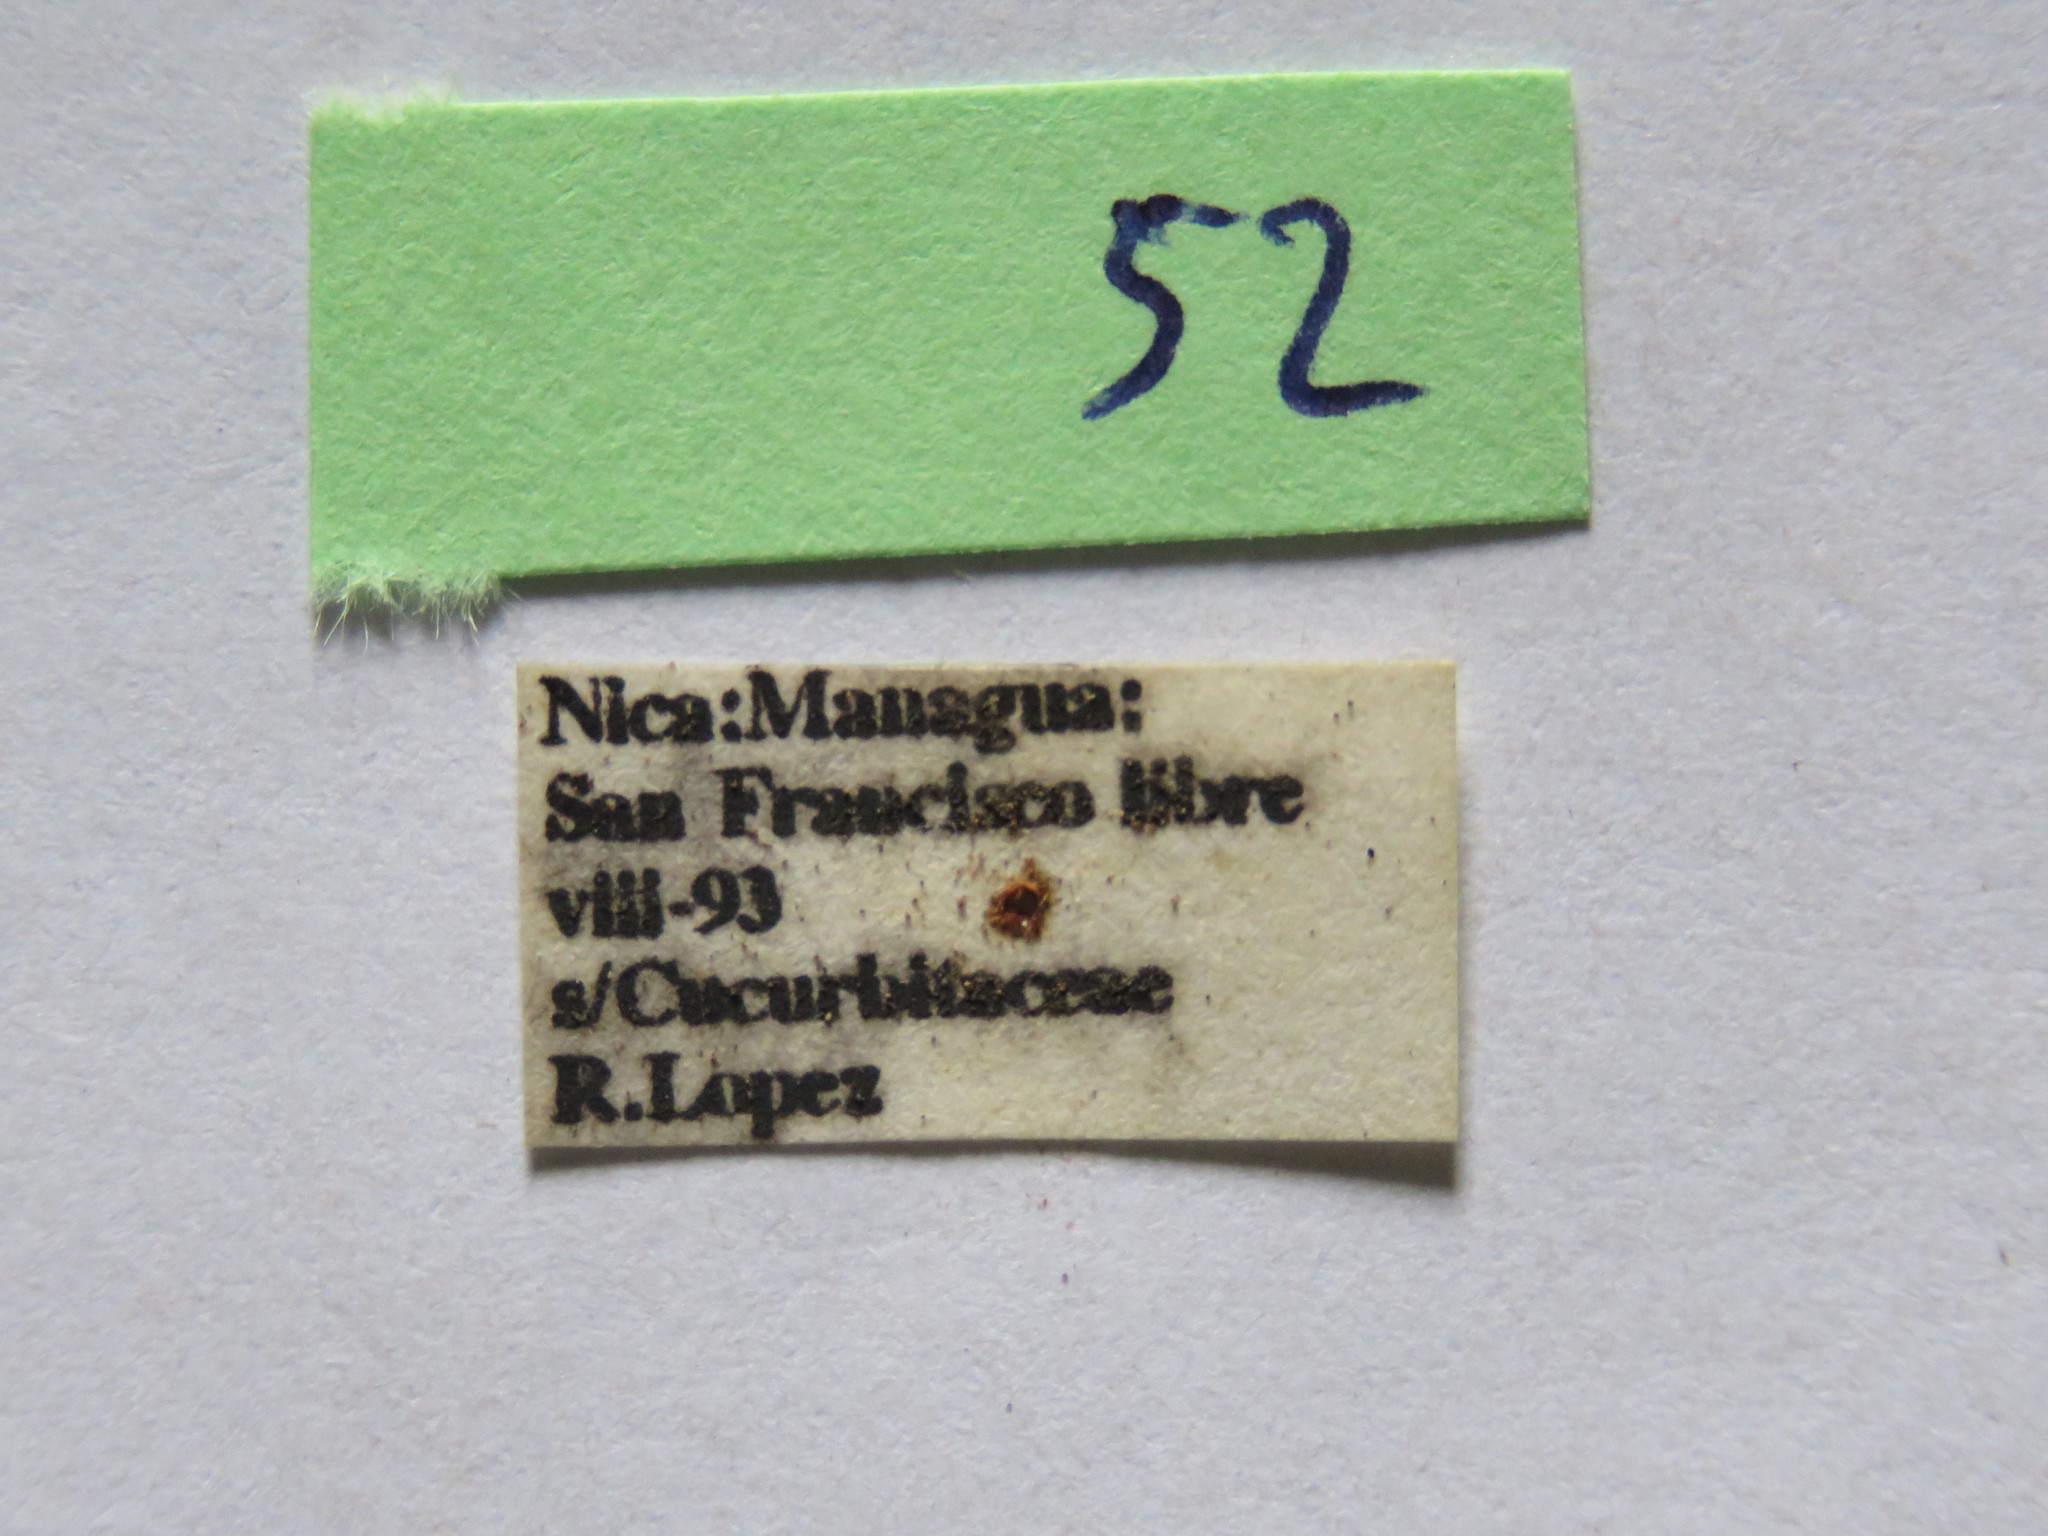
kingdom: Animalia
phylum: Arthropoda
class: Insecta
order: Hemiptera
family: Coreidae
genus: Phthiacnemia
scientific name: Phthiacnemia picta
